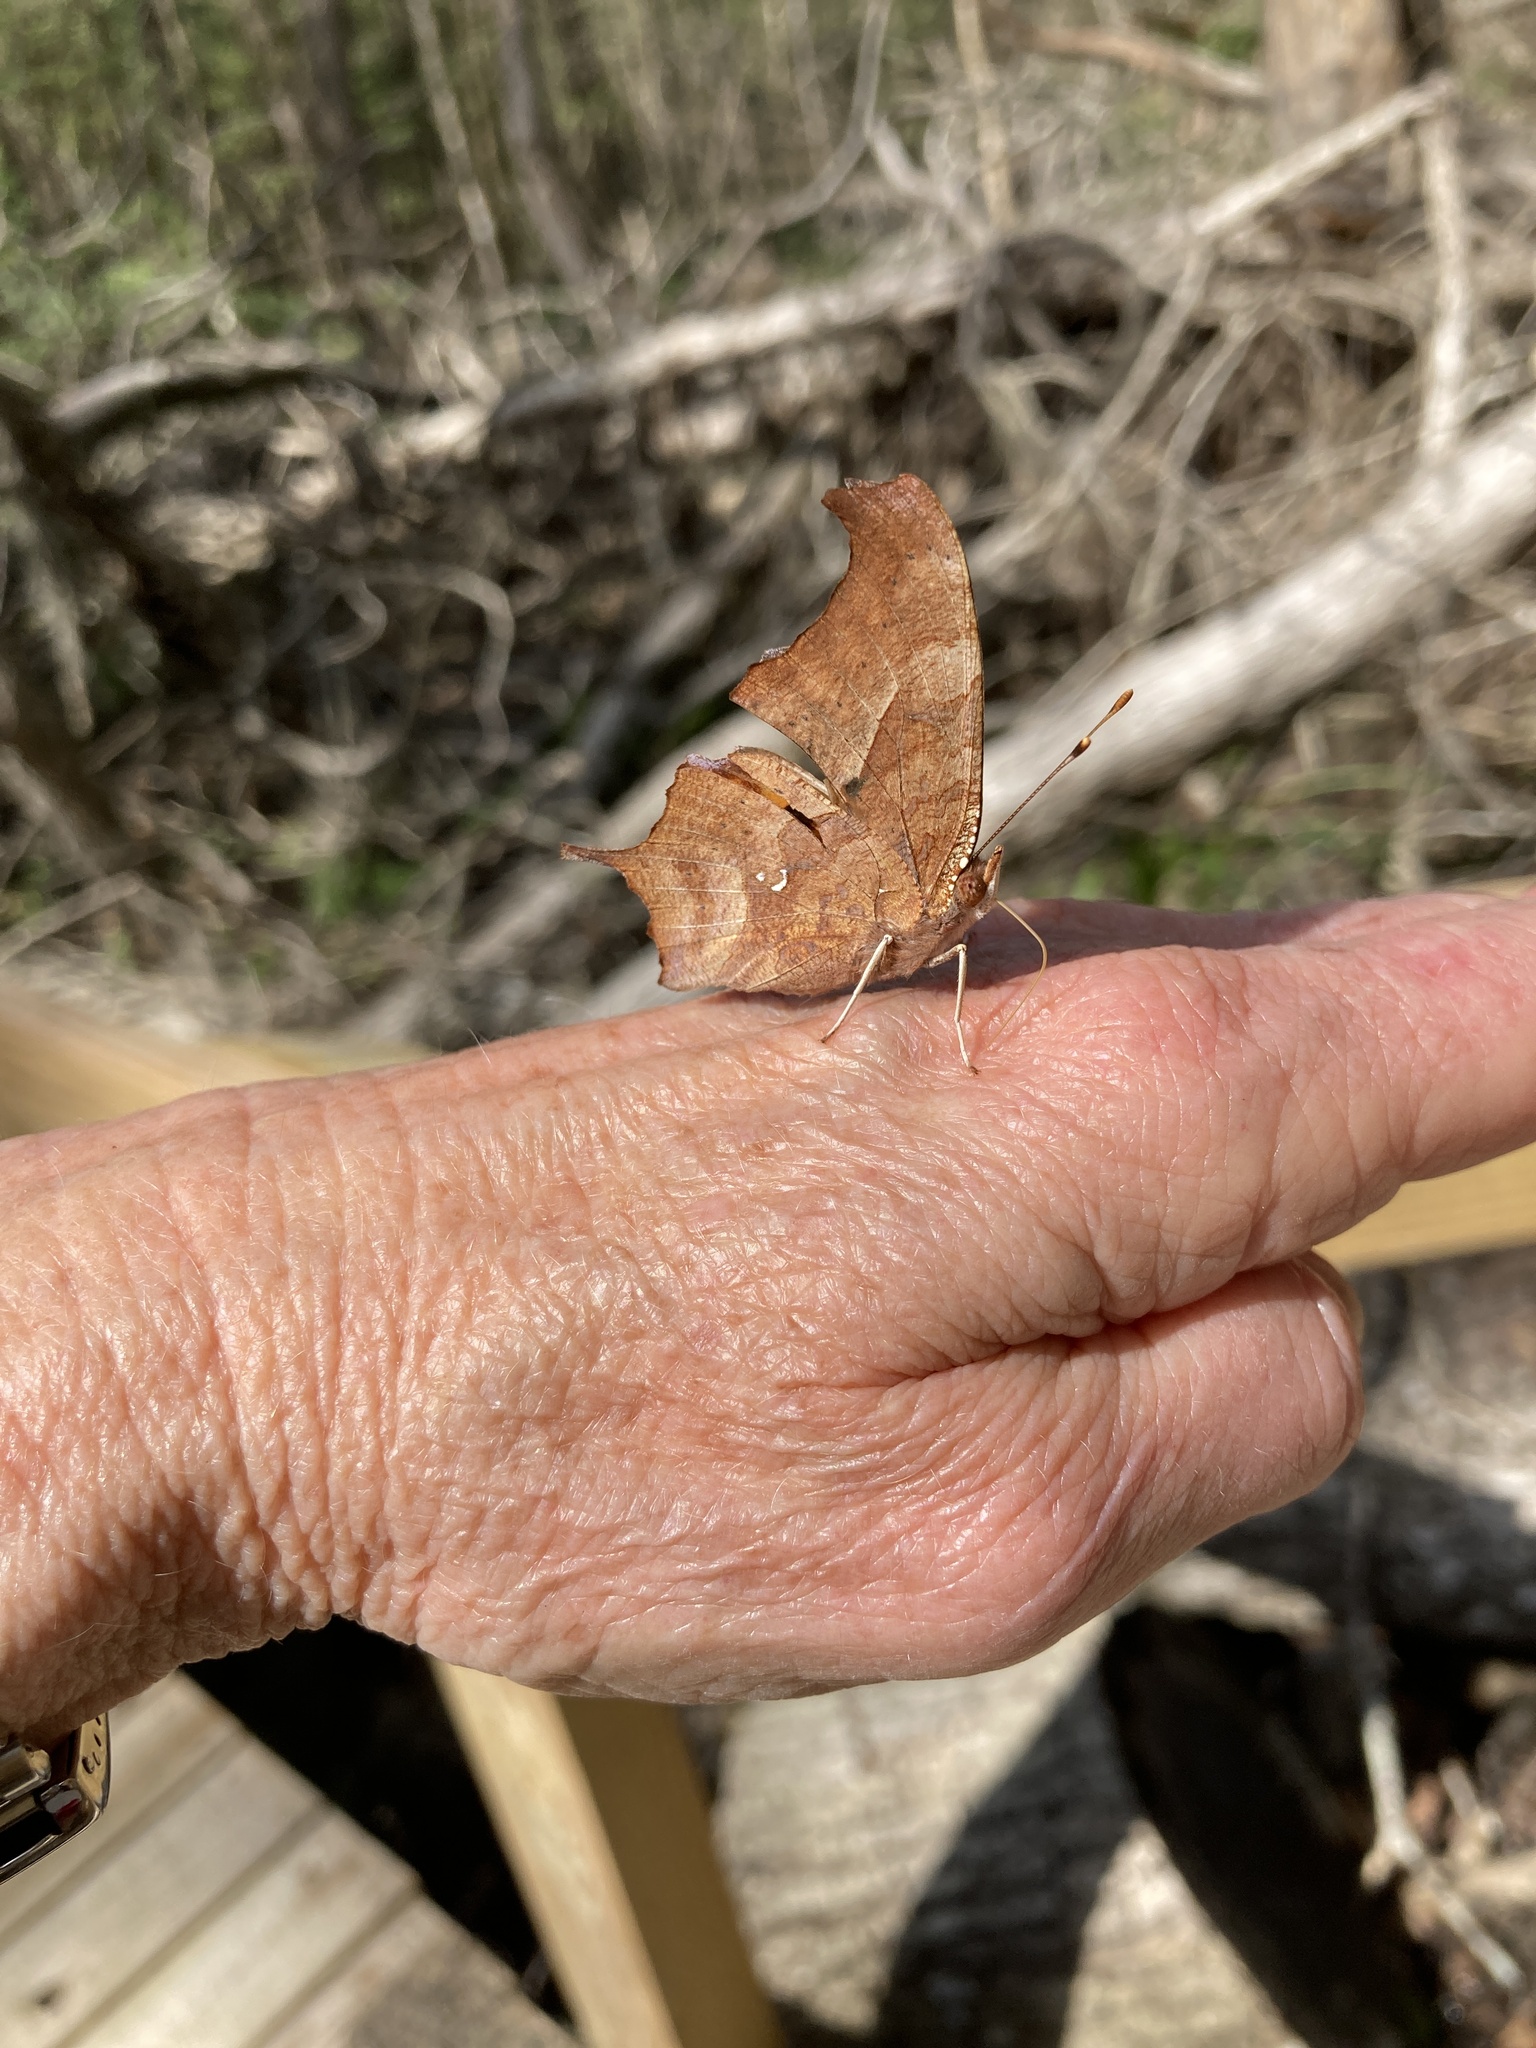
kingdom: Animalia
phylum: Arthropoda
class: Insecta
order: Lepidoptera
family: Nymphalidae
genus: Polygonia
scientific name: Polygonia interrogationis
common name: Question mark
